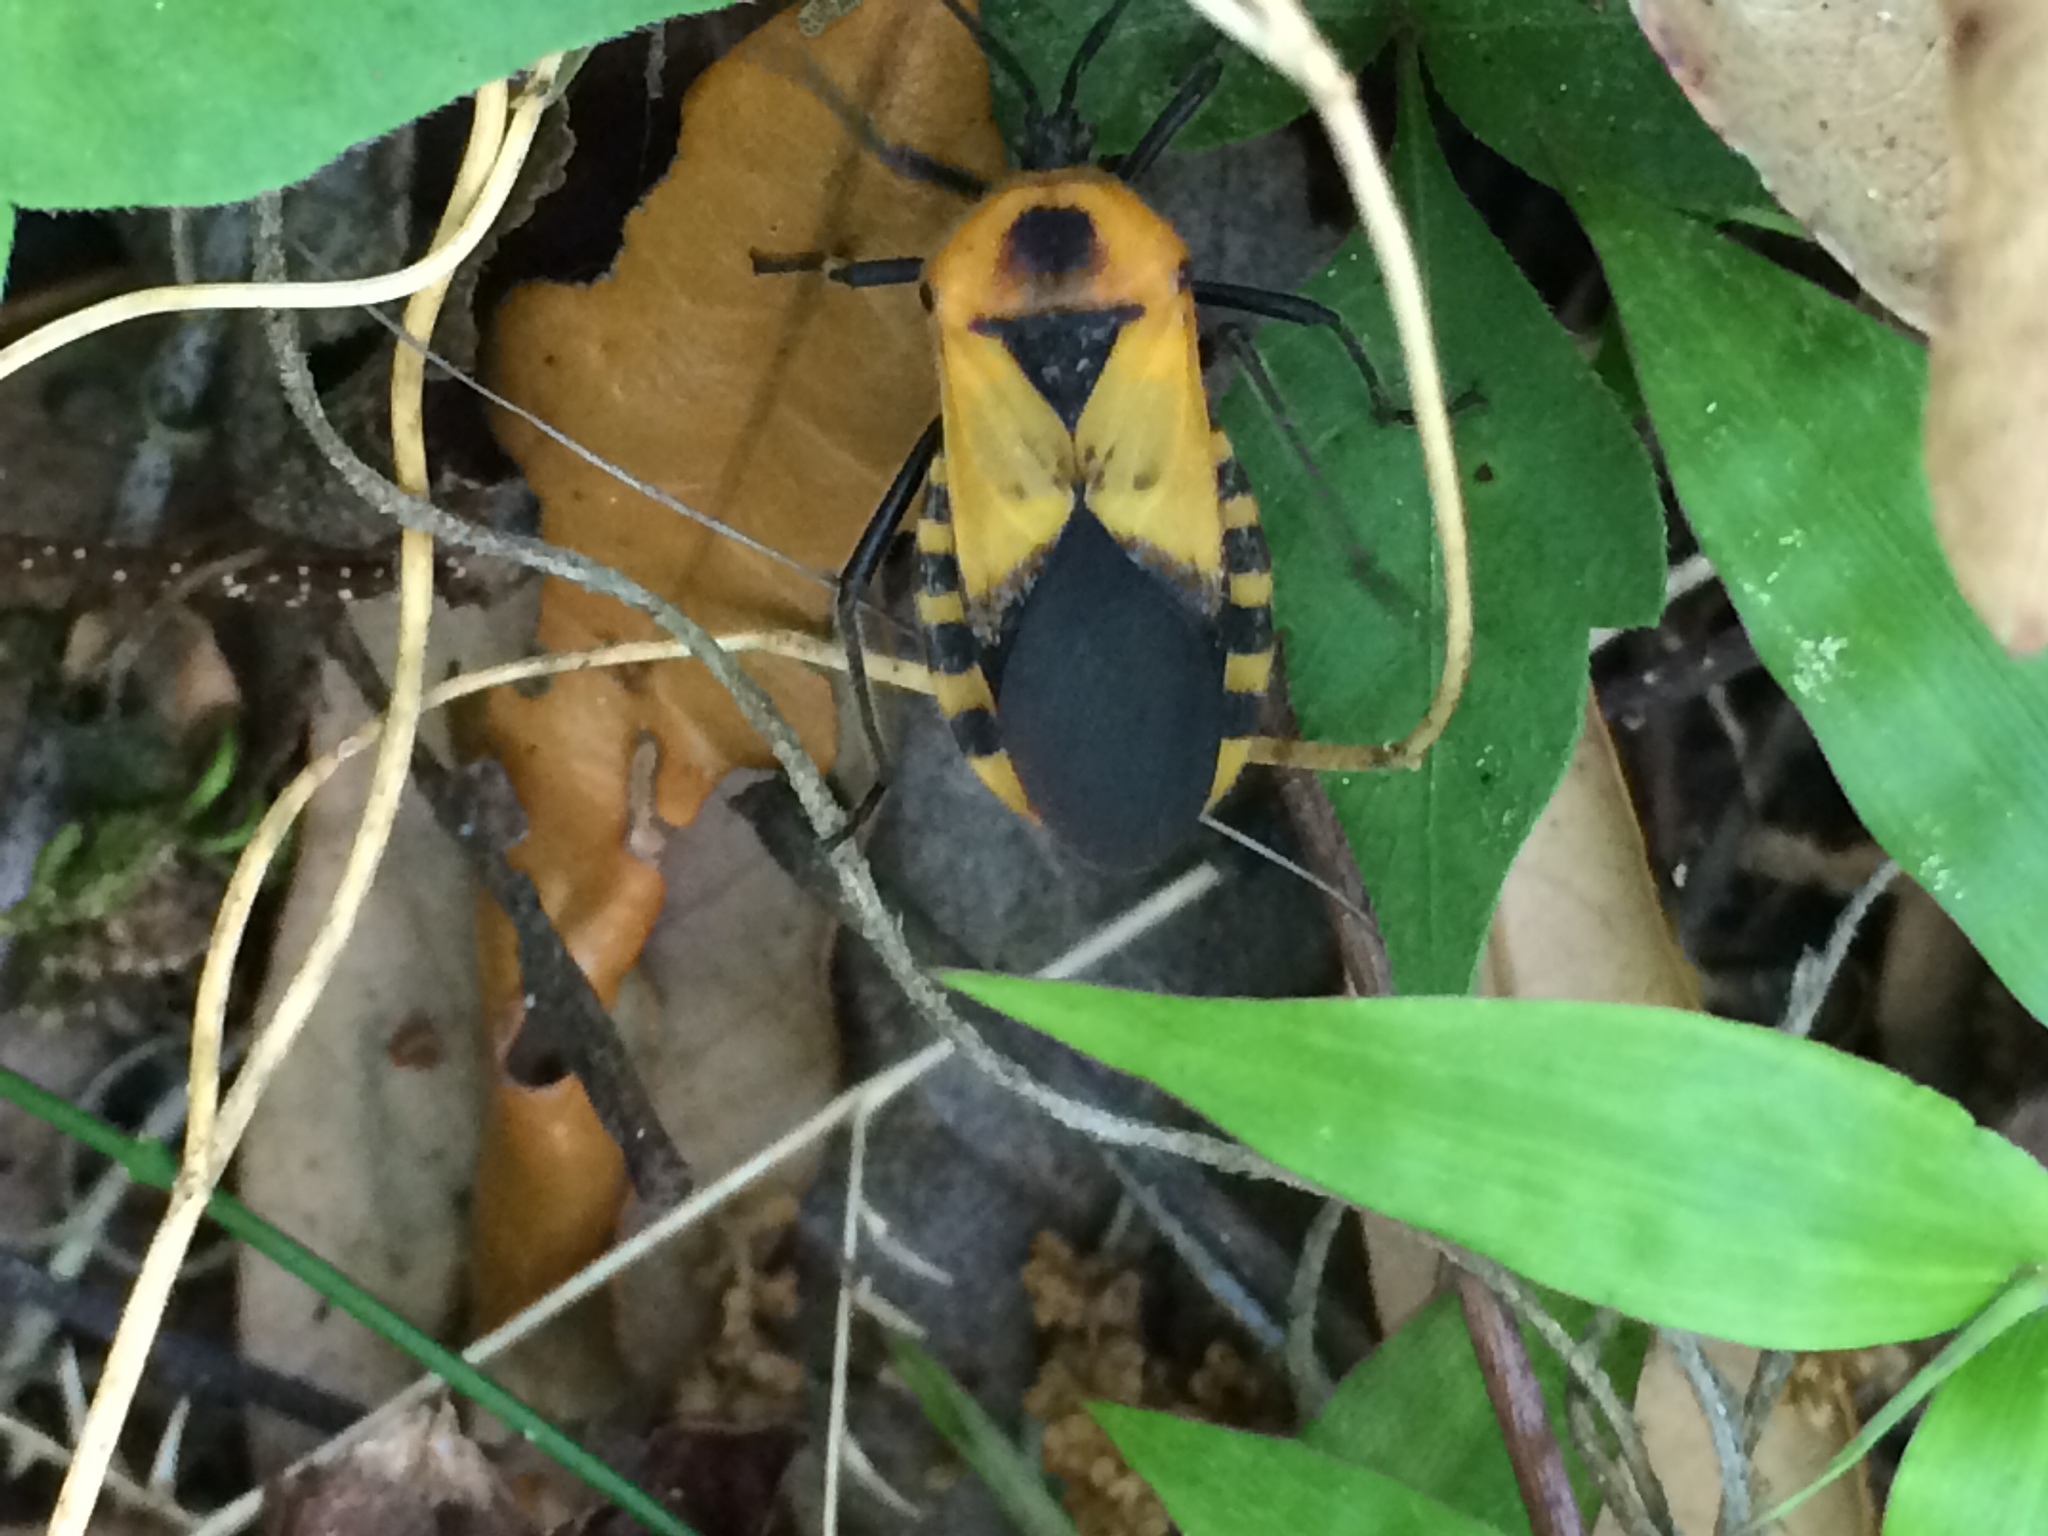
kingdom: Animalia
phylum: Arthropoda
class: Insecta
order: Hemiptera
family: Coreidae
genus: Sephina
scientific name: Sephina gundlachii
